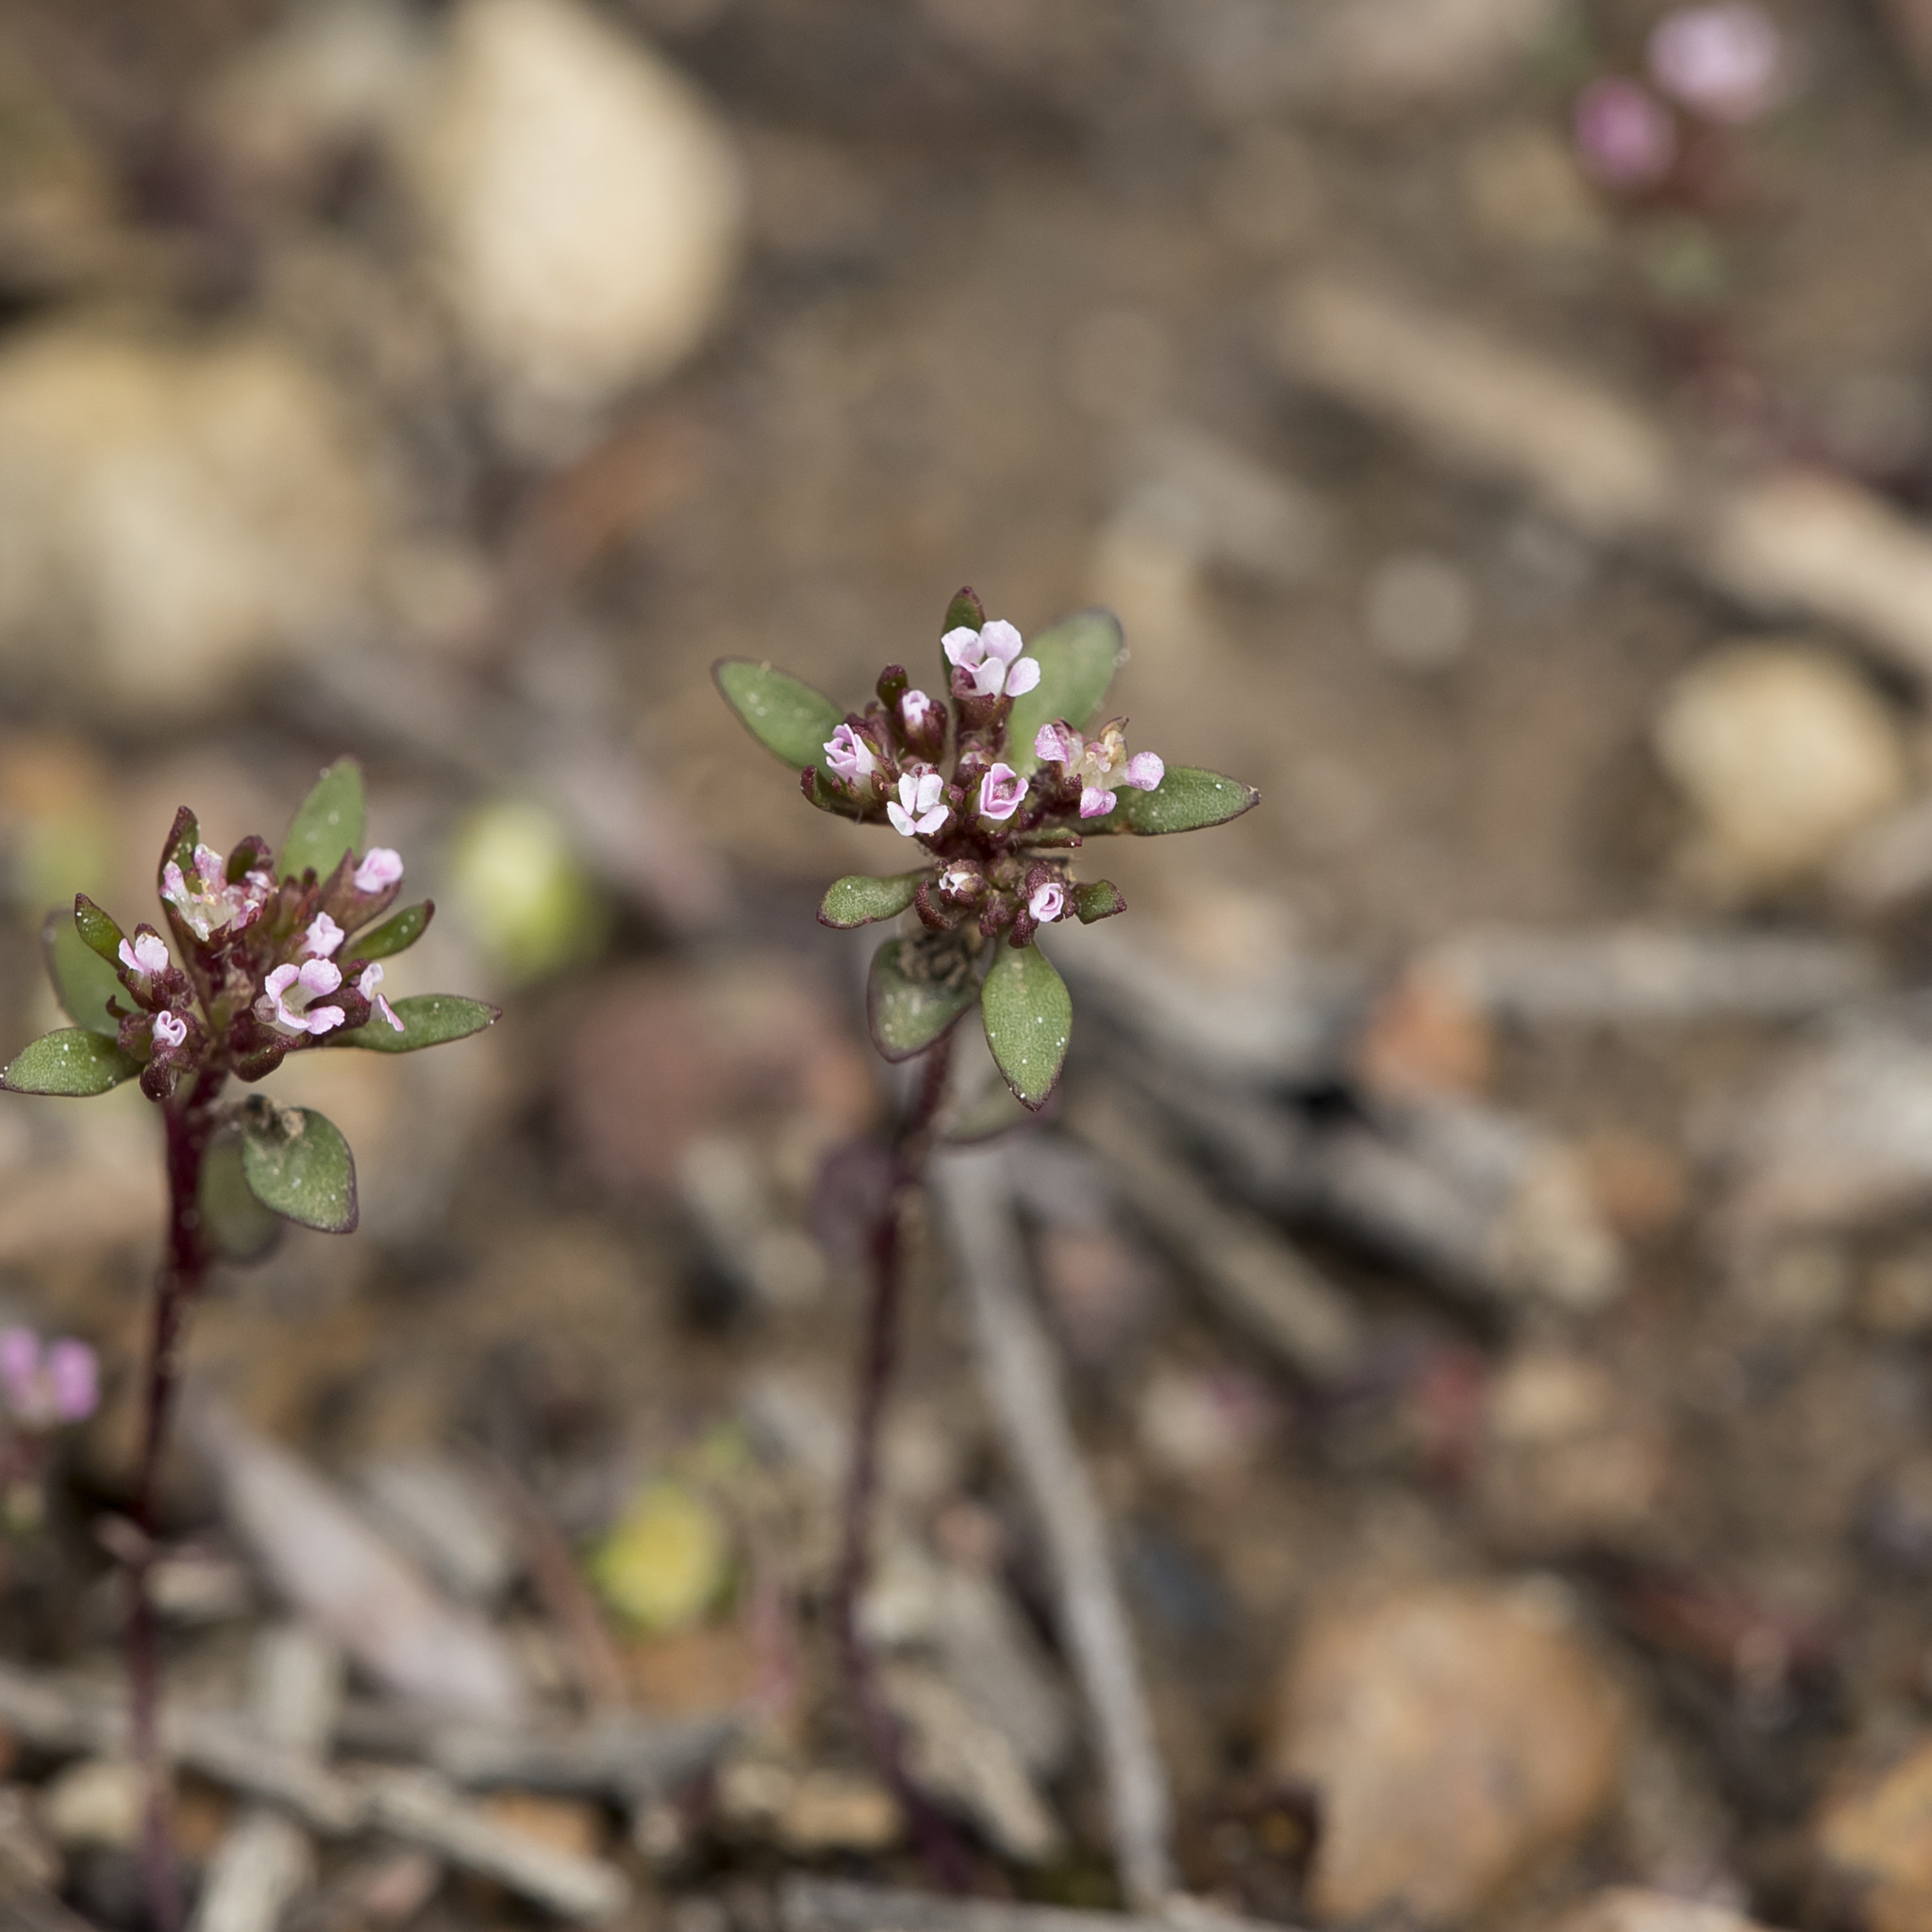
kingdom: Plantae
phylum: Tracheophyta
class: Magnoliopsida
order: Asterales
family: Stylidiaceae
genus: Levenhookia
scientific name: Levenhookia pusilla
